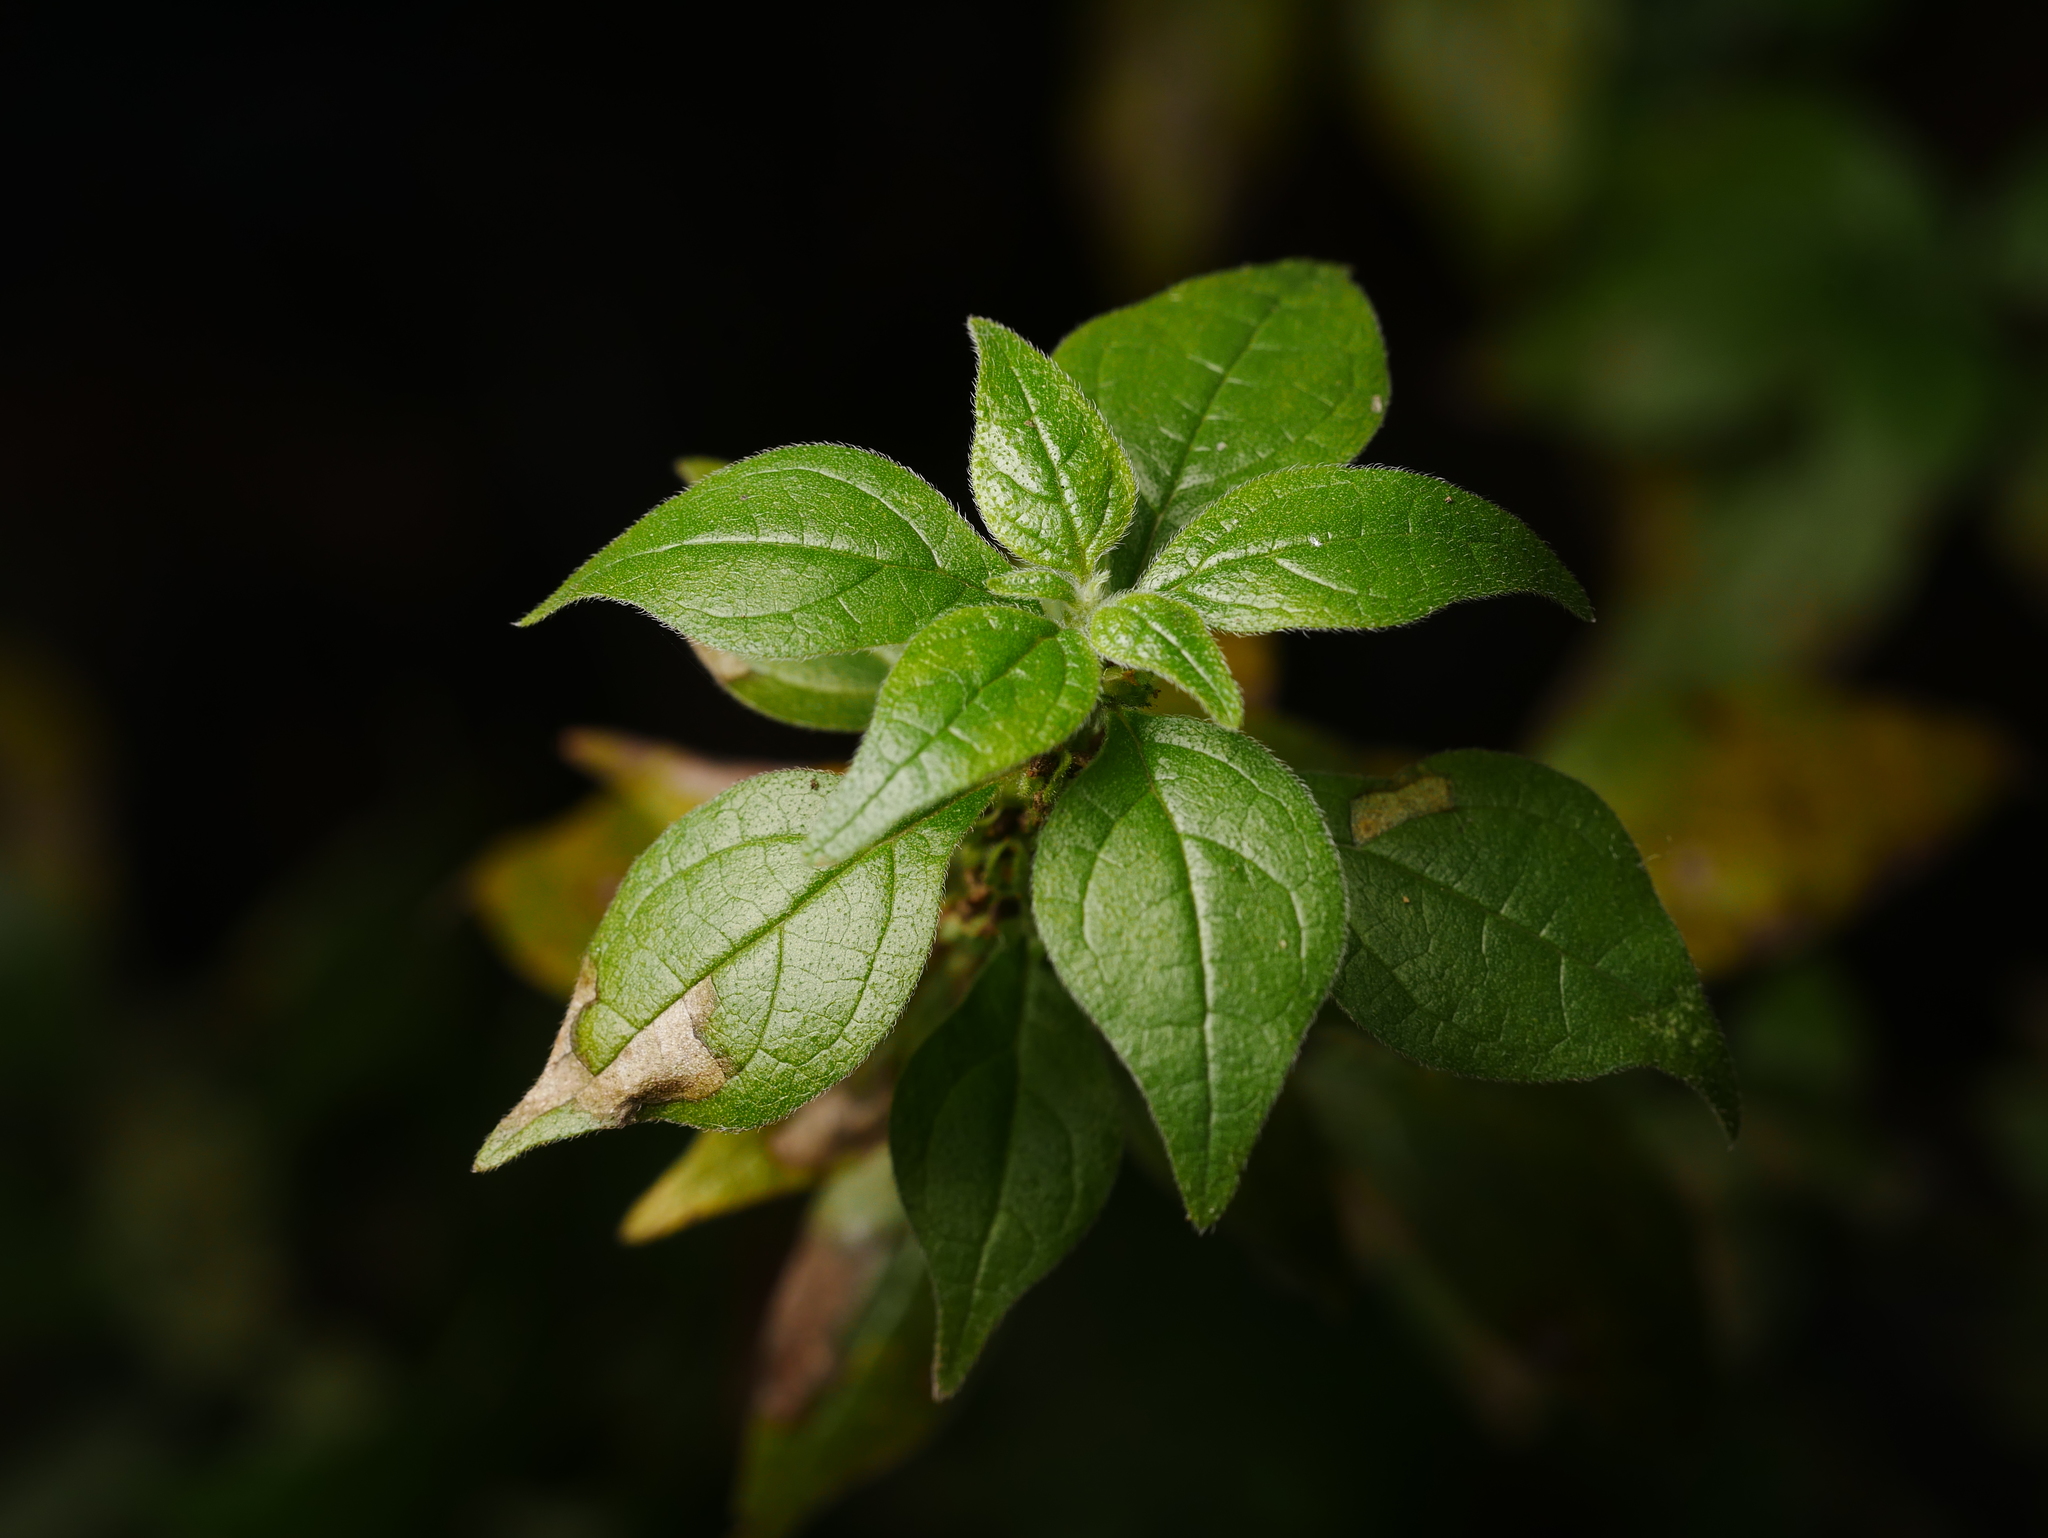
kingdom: Plantae
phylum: Tracheophyta
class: Magnoliopsida
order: Rosales
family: Urticaceae
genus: Parietaria
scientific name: Parietaria judaica
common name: Pellitory-of-the-wall
